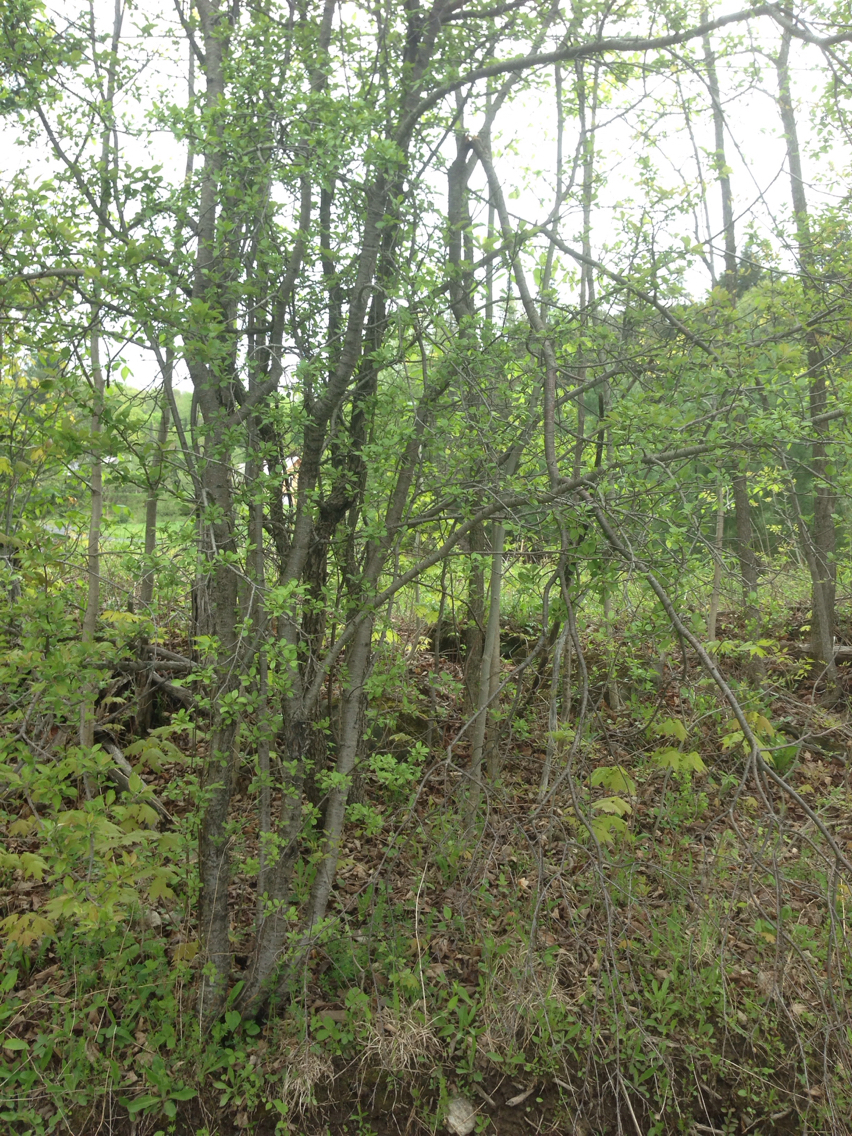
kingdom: Plantae
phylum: Tracheophyta
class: Magnoliopsida
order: Rosales
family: Rhamnaceae
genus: Rhamnus
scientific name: Rhamnus cathartica
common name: Common buckthorn
